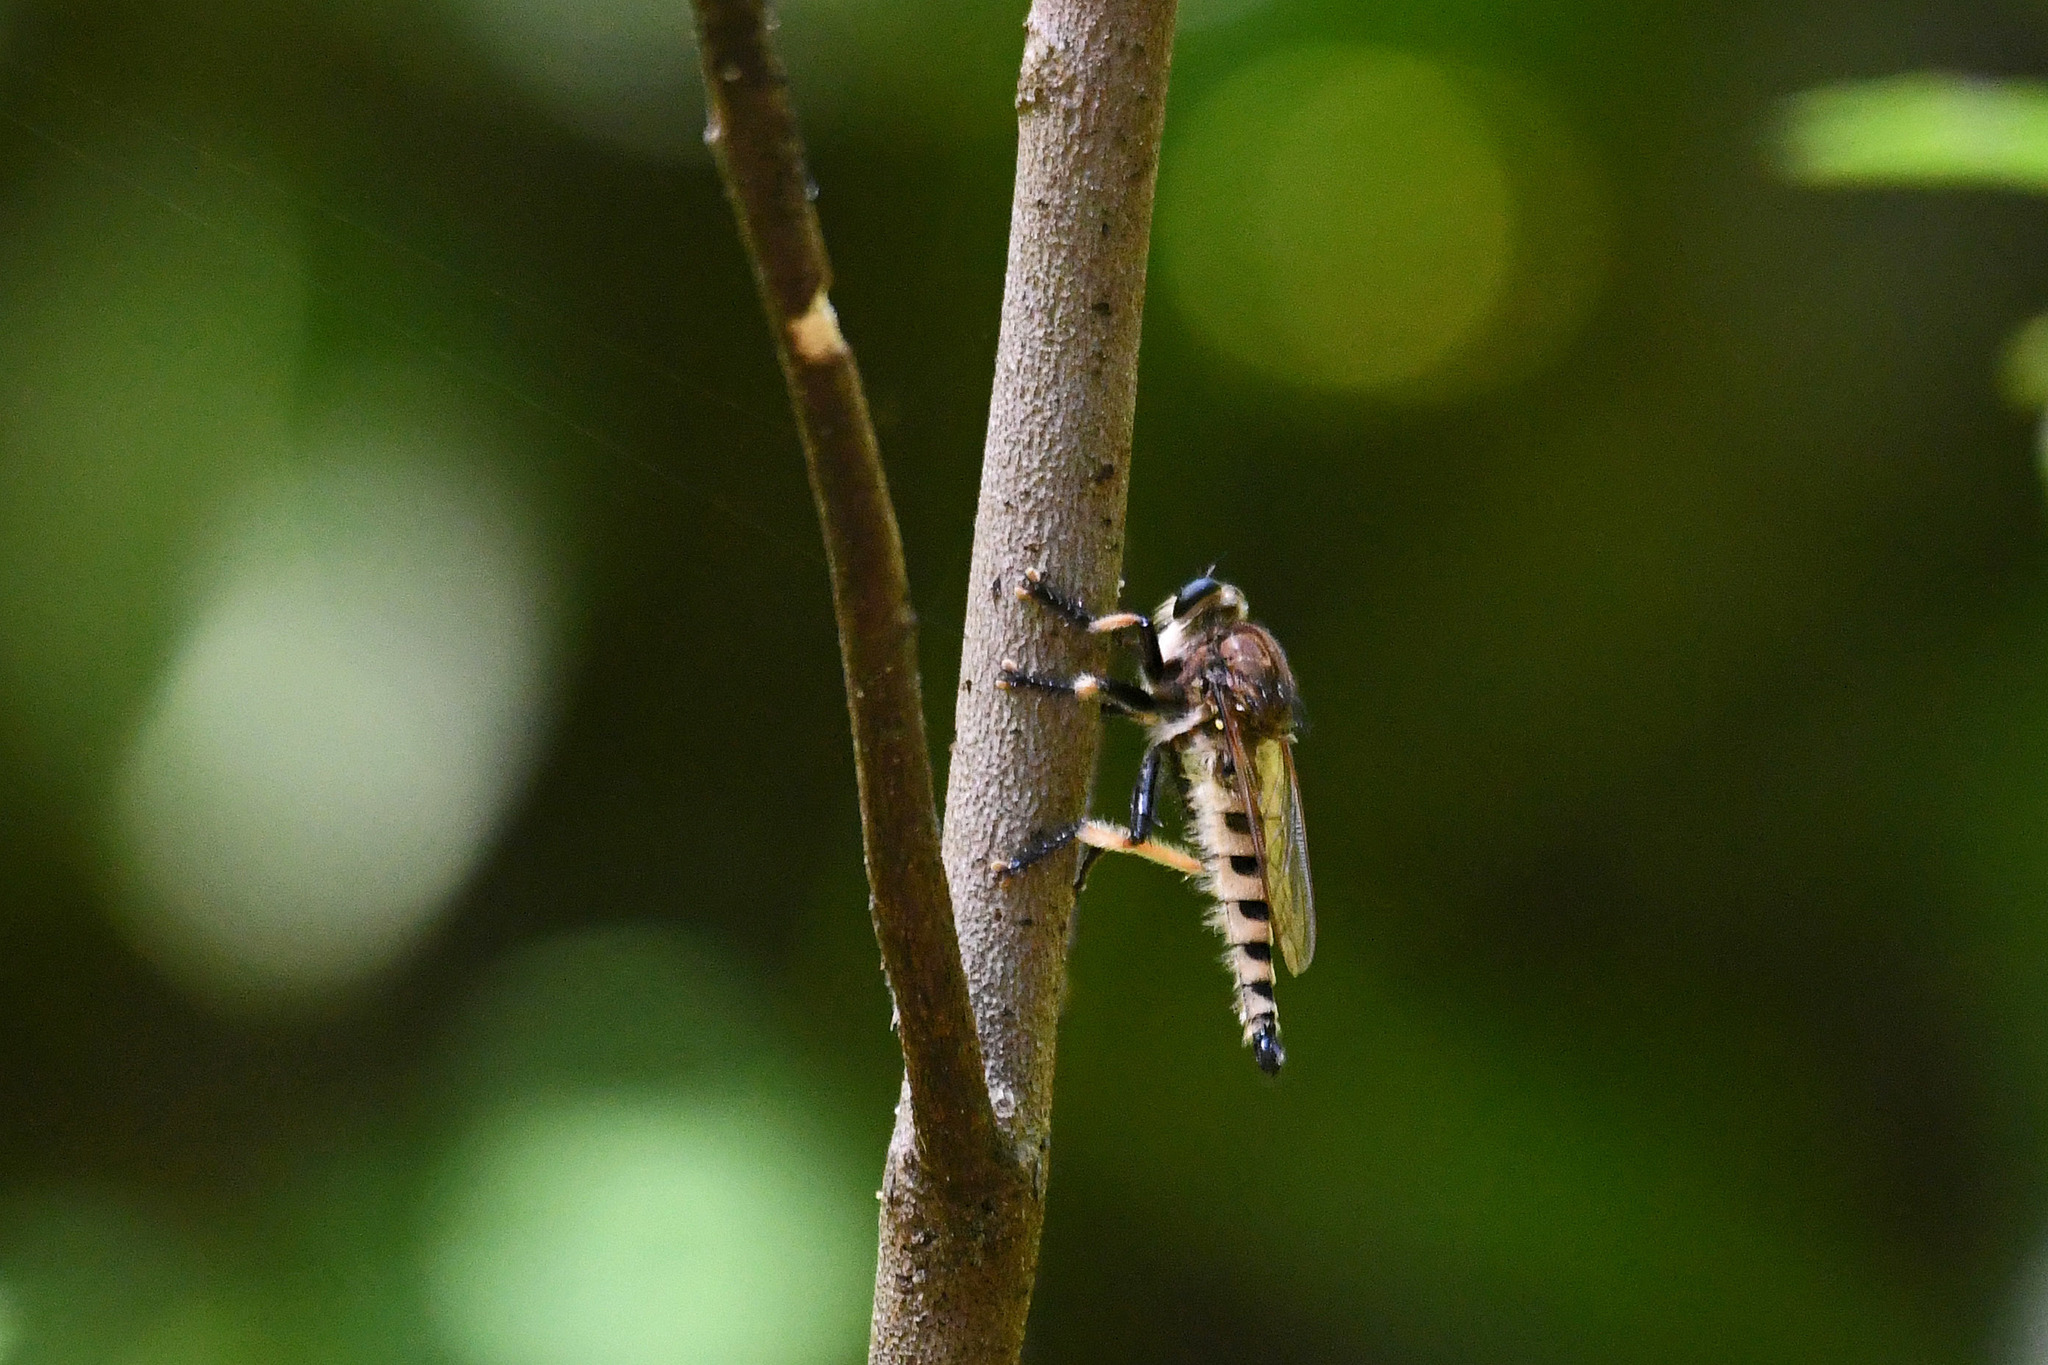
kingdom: Animalia
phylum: Arthropoda
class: Insecta
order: Diptera
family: Asilidae
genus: Promachus
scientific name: Promachus rufipes
